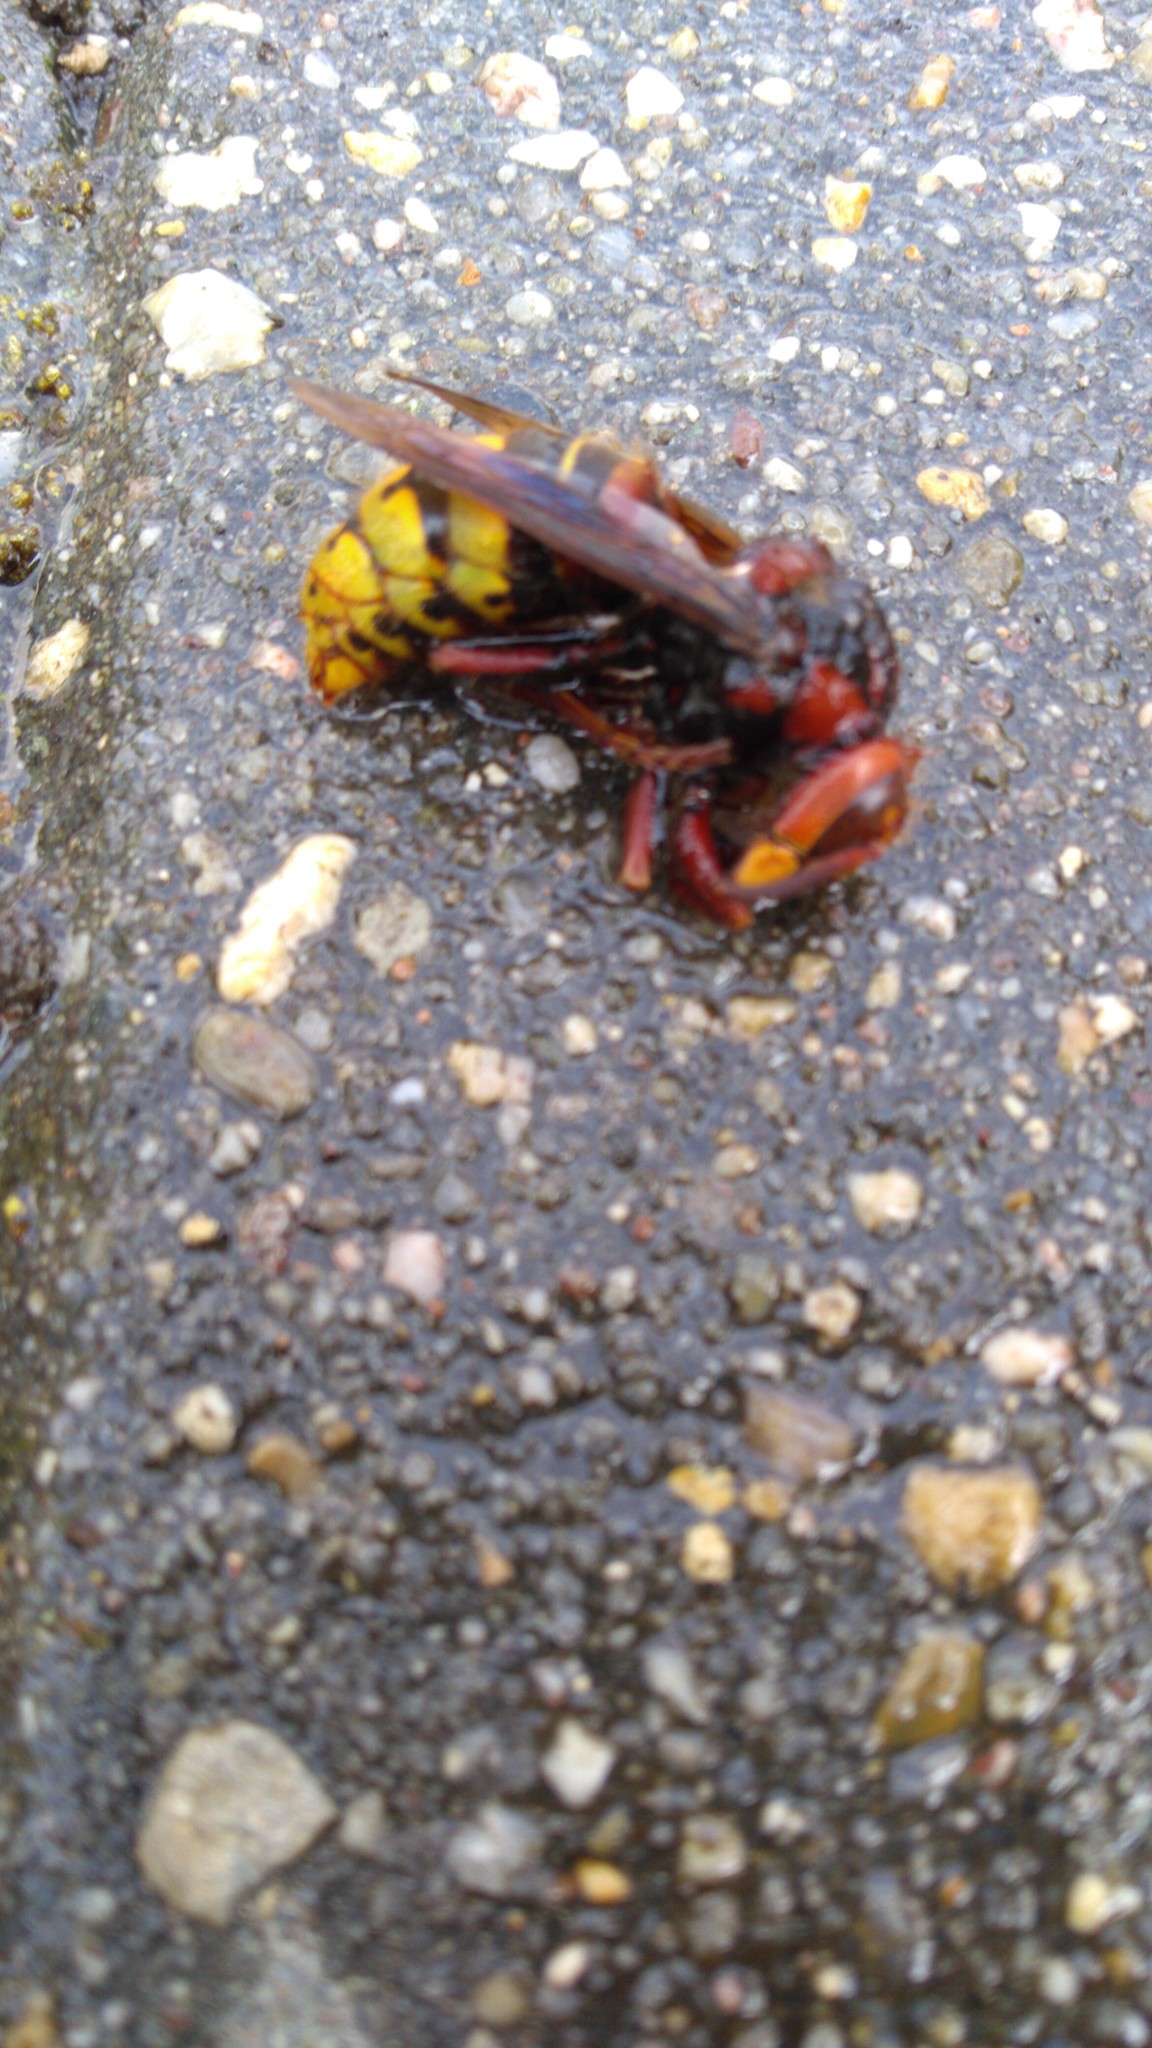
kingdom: Animalia
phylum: Arthropoda
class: Insecta
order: Hymenoptera
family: Vespidae
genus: Vespa
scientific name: Vespa crabro
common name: Hornet
